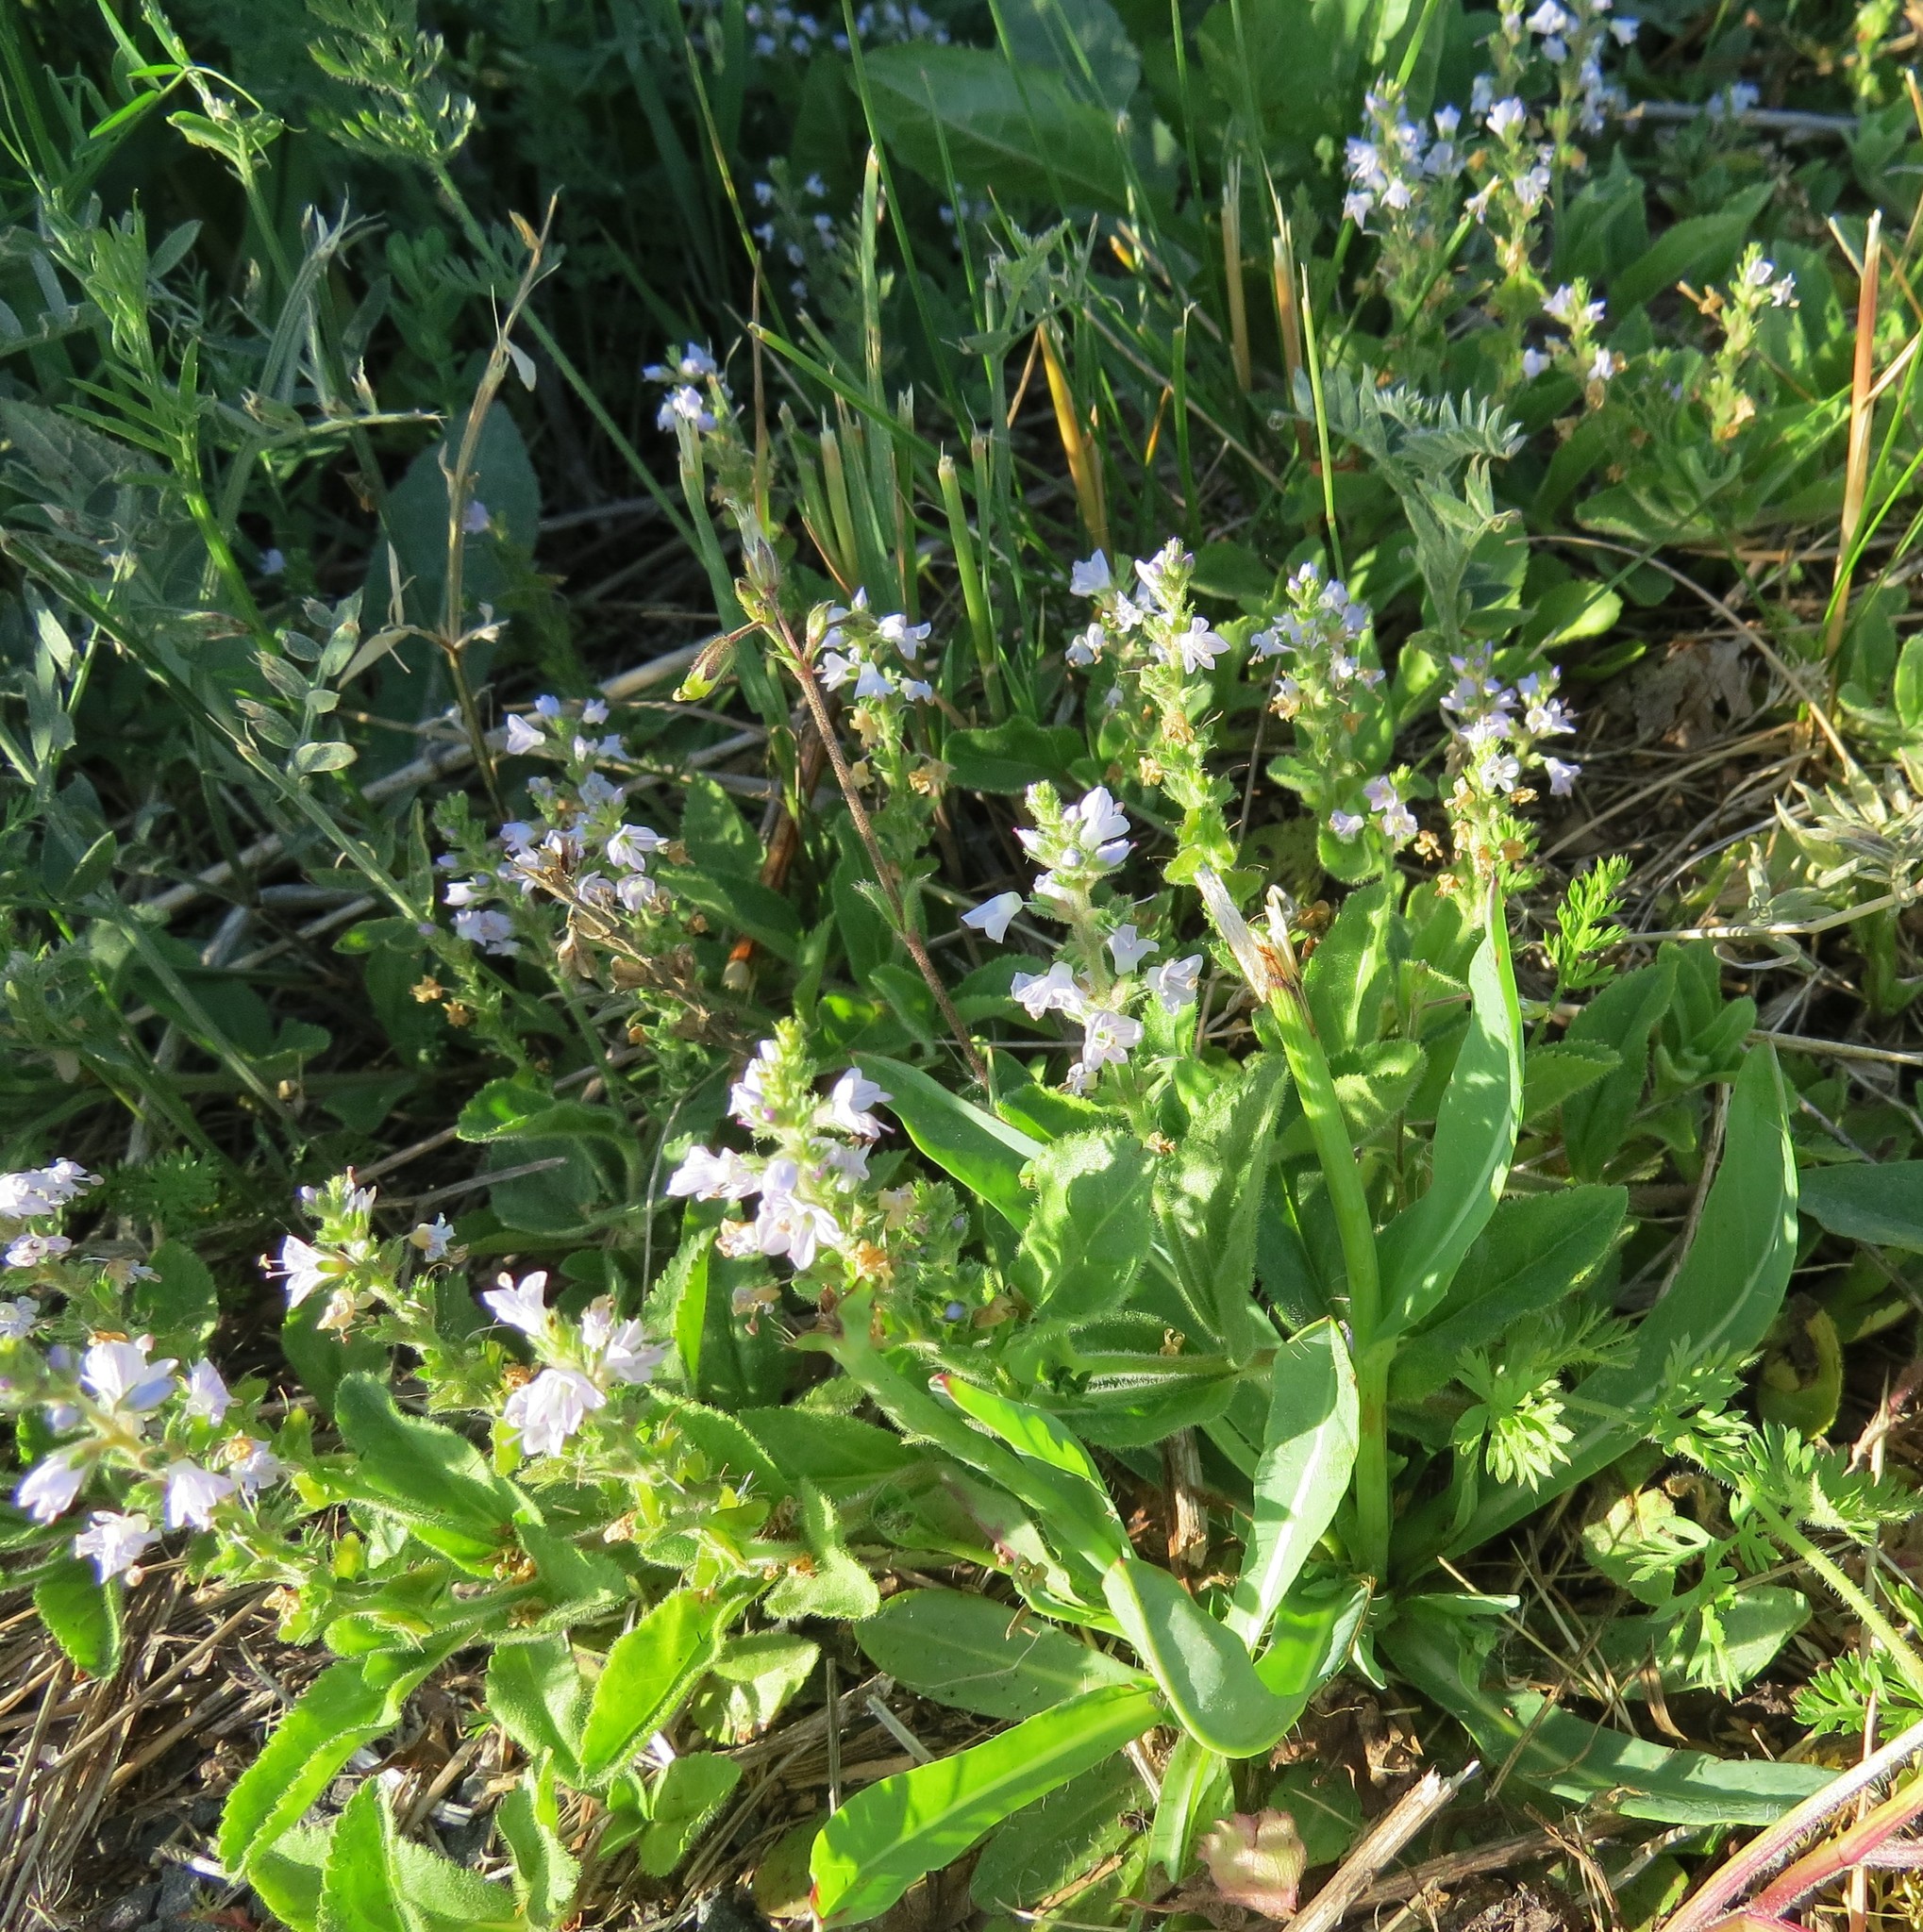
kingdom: Plantae
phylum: Tracheophyta
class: Magnoliopsida
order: Lamiales
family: Plantaginaceae
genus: Veronica
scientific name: Veronica officinalis
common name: Common speedwell
